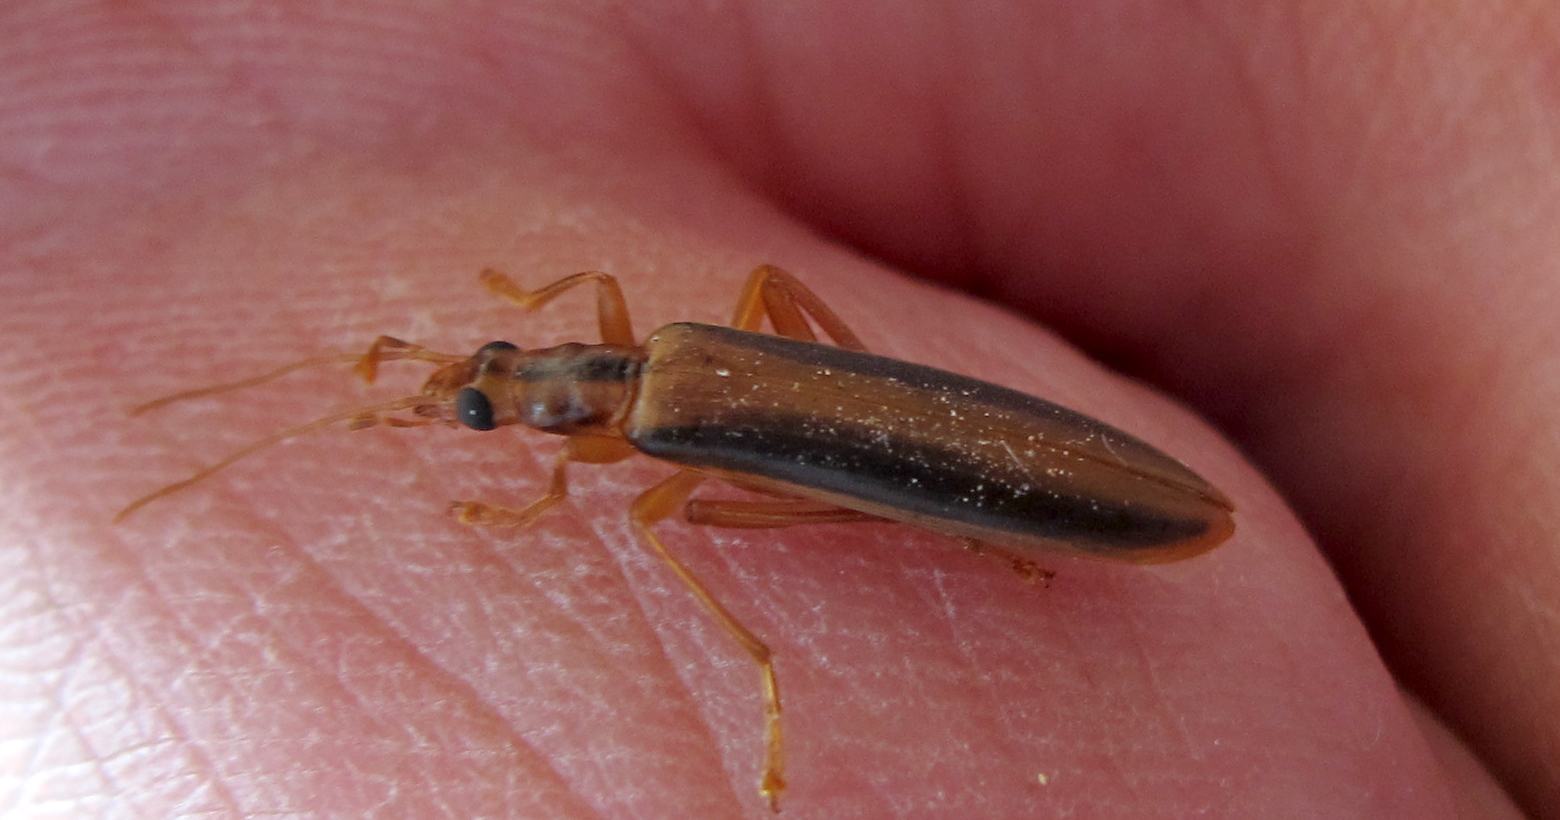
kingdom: Animalia
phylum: Arthropoda
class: Insecta
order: Coleoptera
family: Oedemeridae
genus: Thelyphassa
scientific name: Thelyphassa
